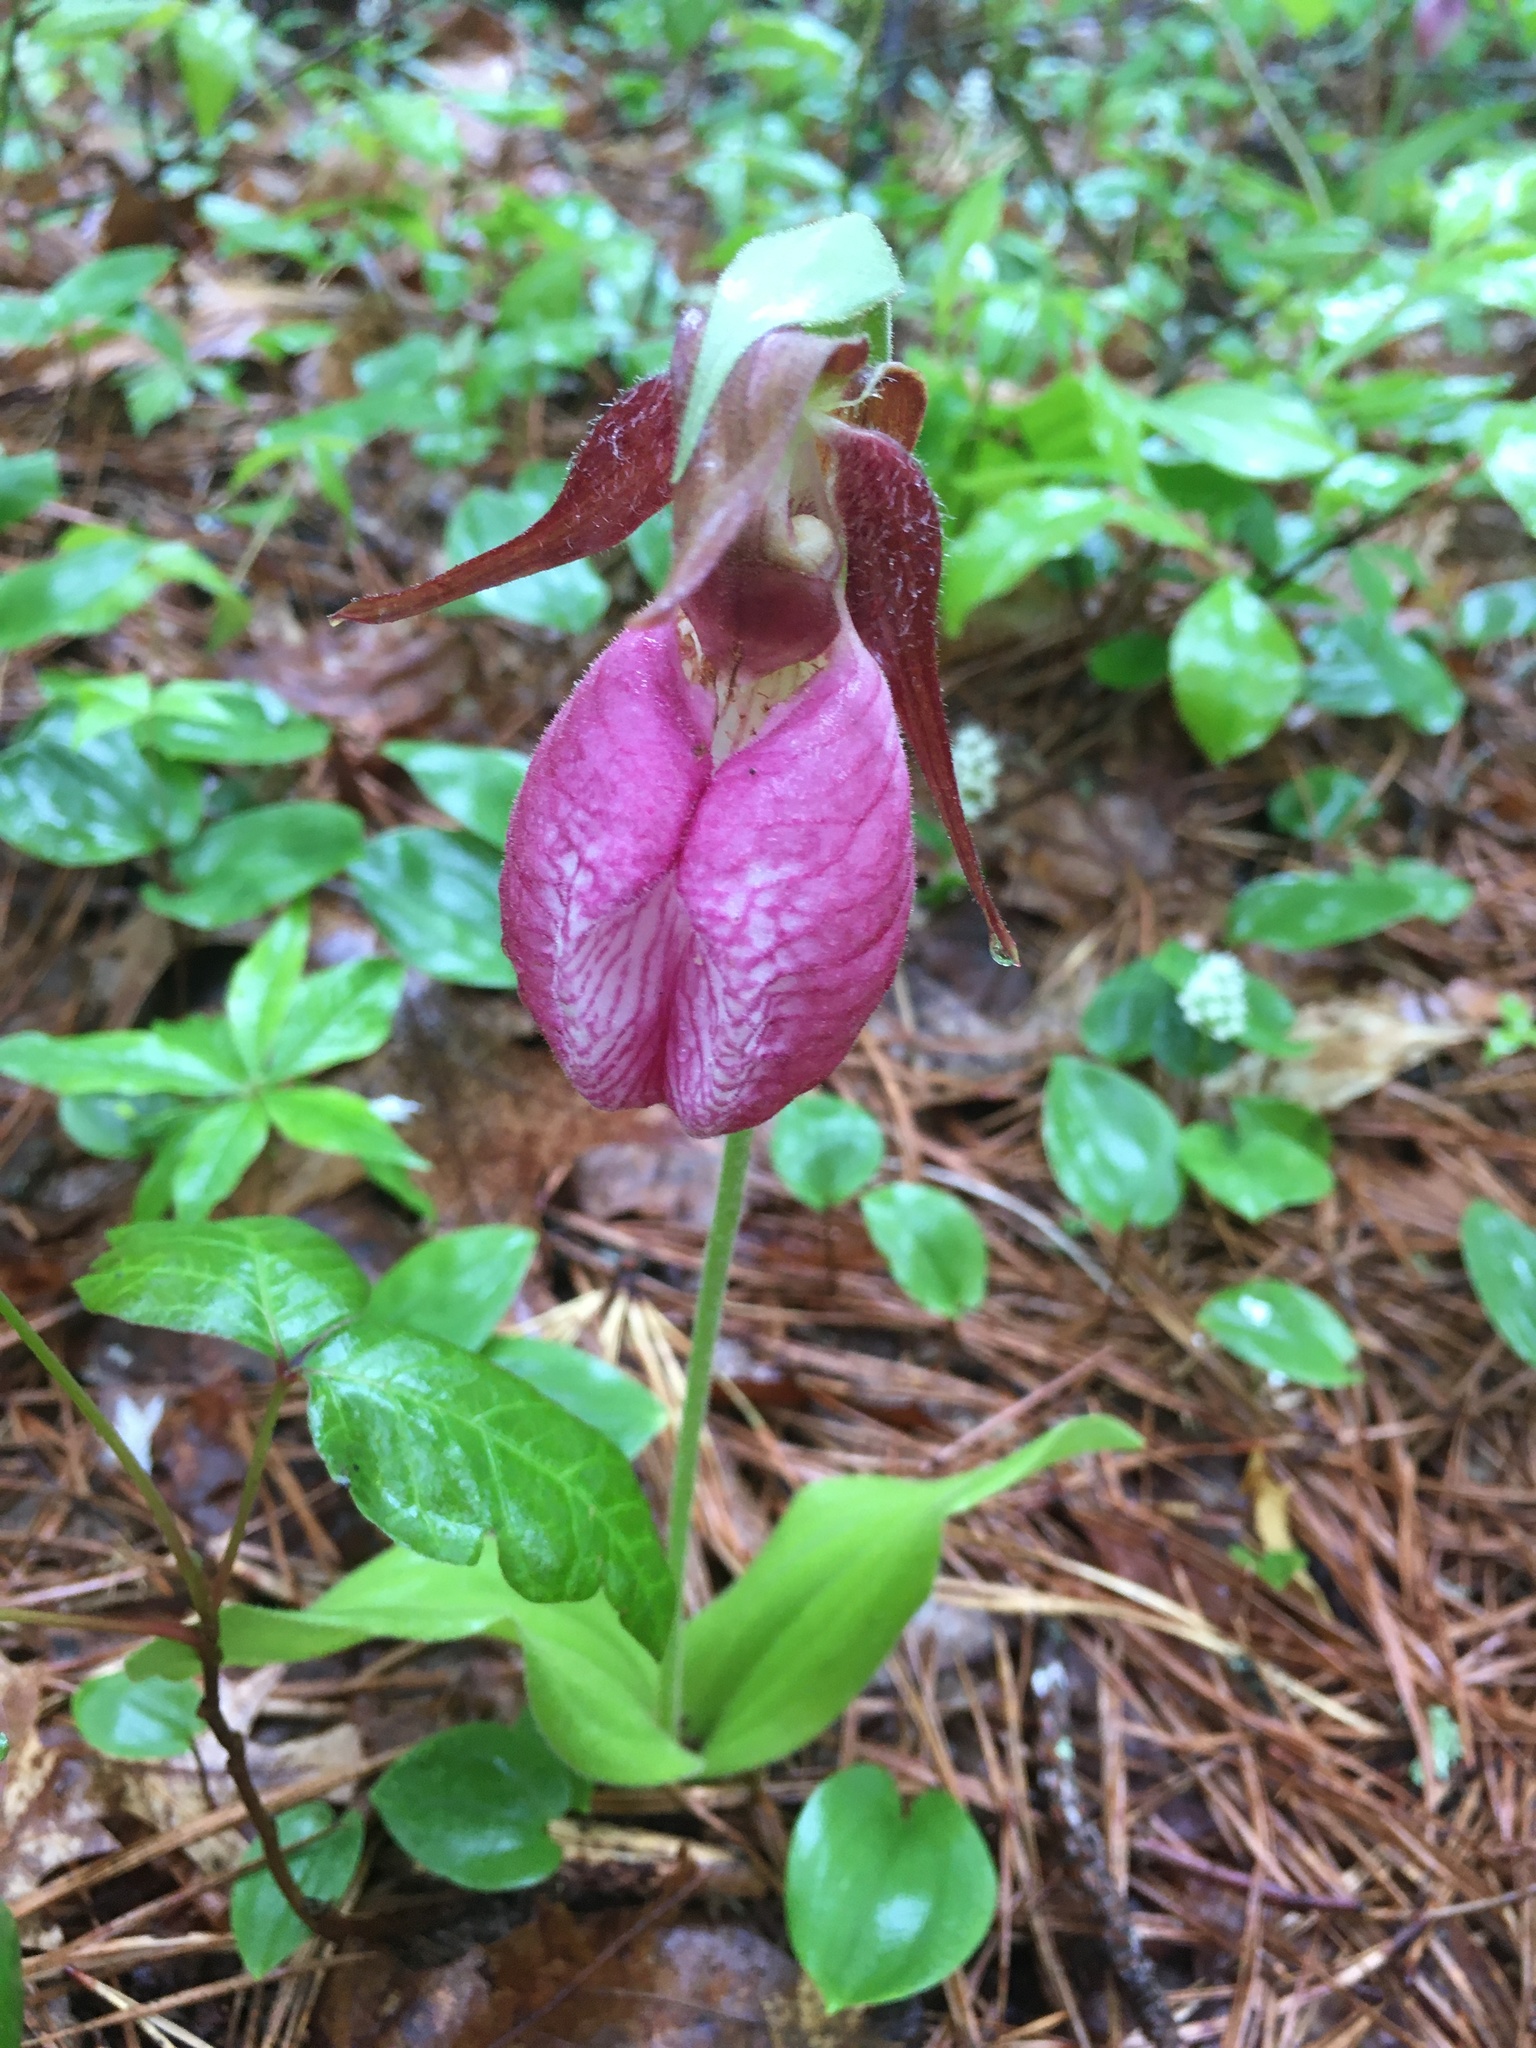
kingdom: Plantae
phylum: Tracheophyta
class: Liliopsida
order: Asparagales
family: Orchidaceae
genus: Cypripedium
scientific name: Cypripedium acaule
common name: Pink lady's-slipper
